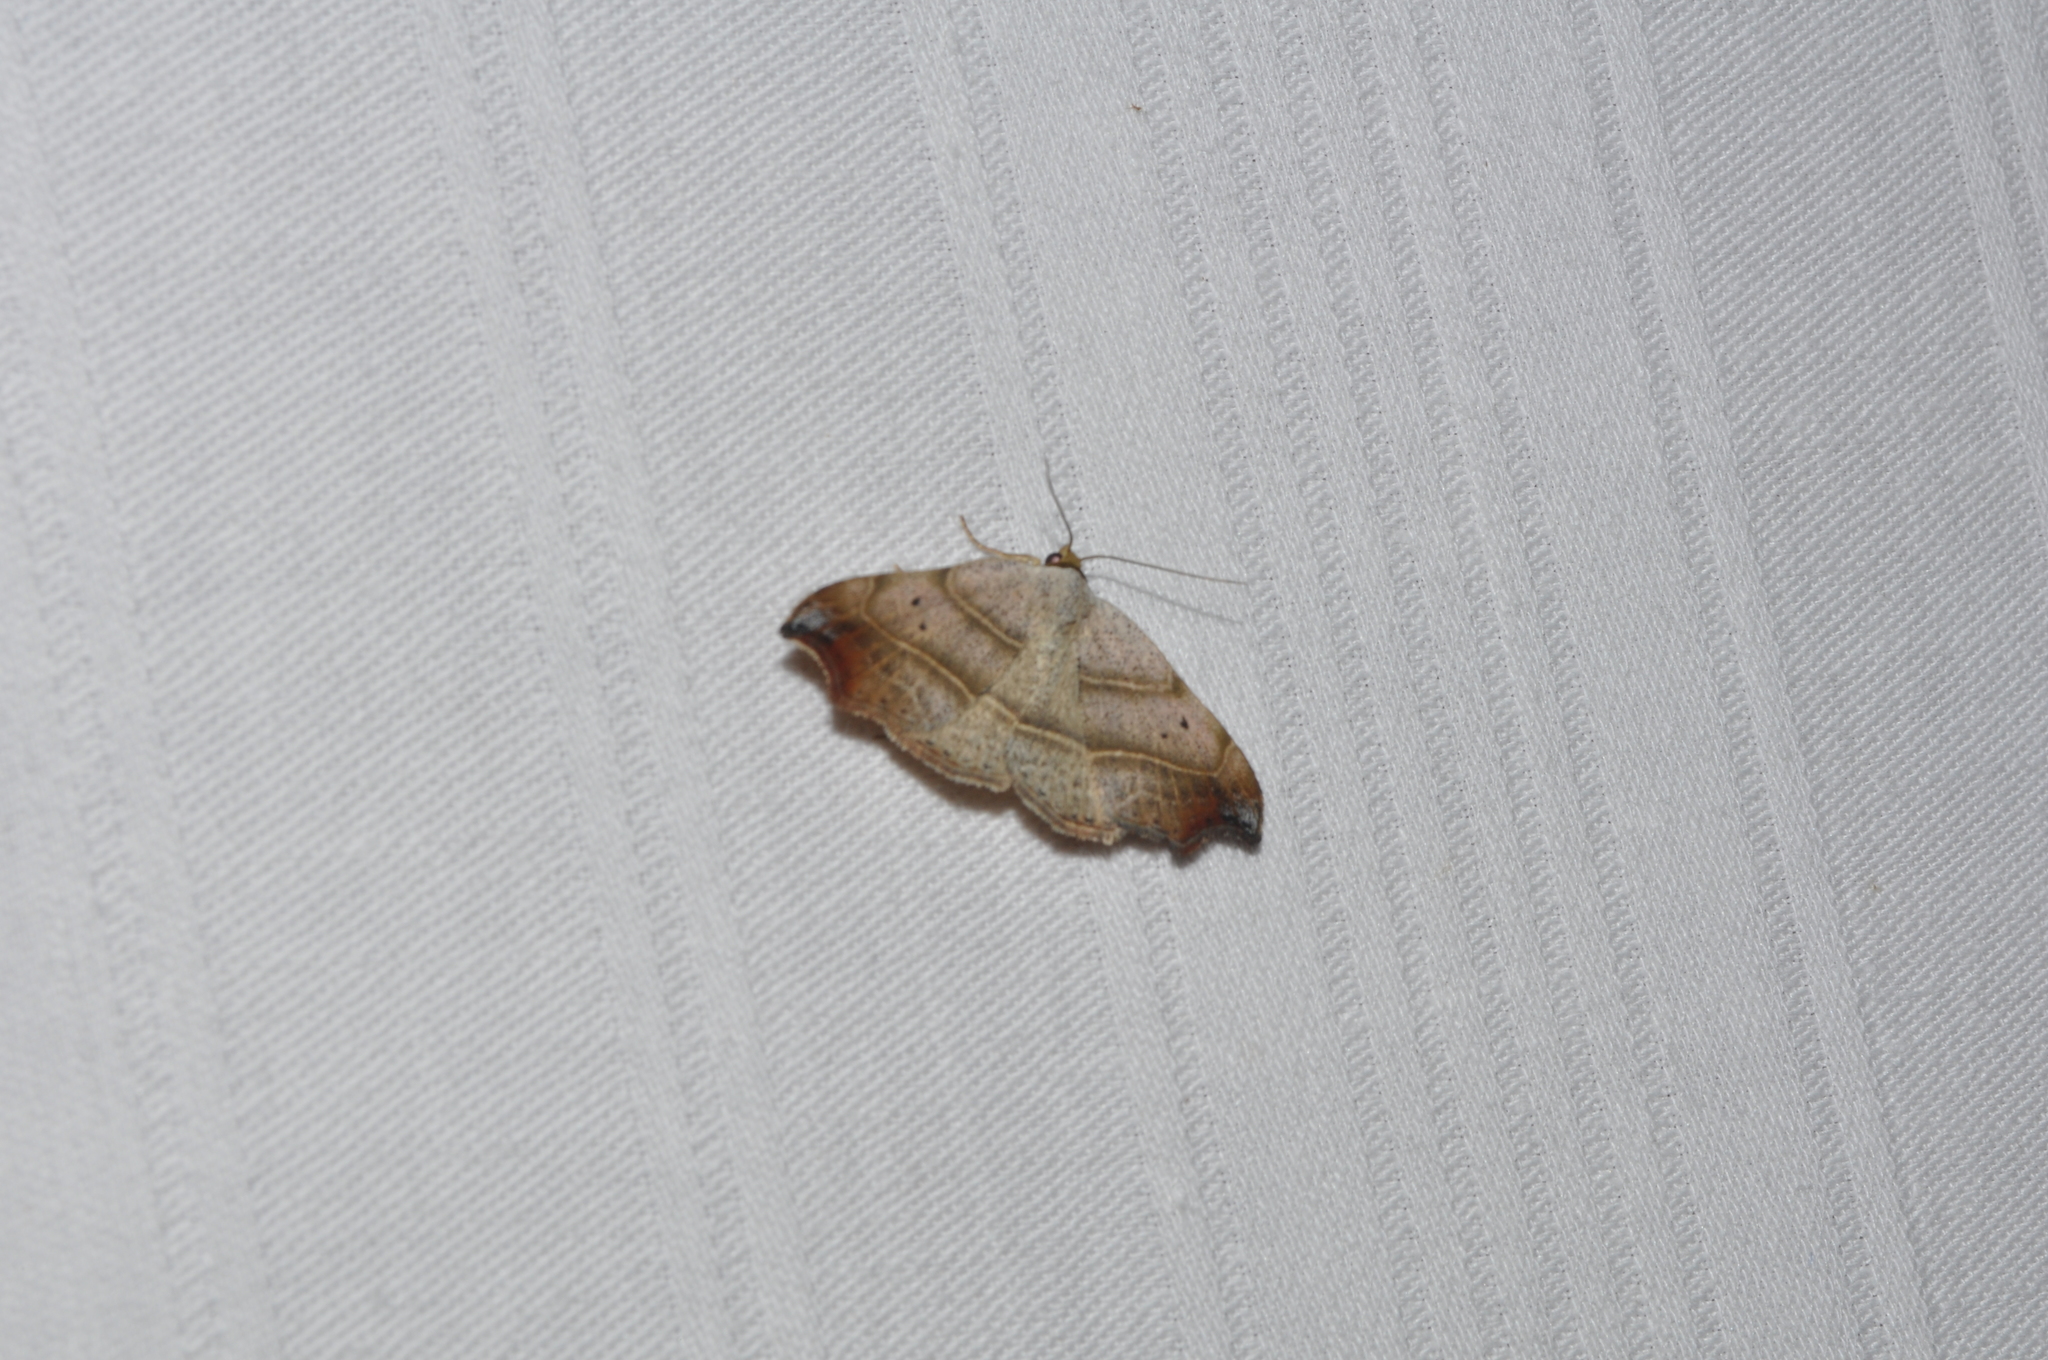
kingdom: Animalia
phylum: Arthropoda
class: Insecta
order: Lepidoptera
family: Erebidae
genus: Laspeyria
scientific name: Laspeyria flexula
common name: Beautiful hook-tip
